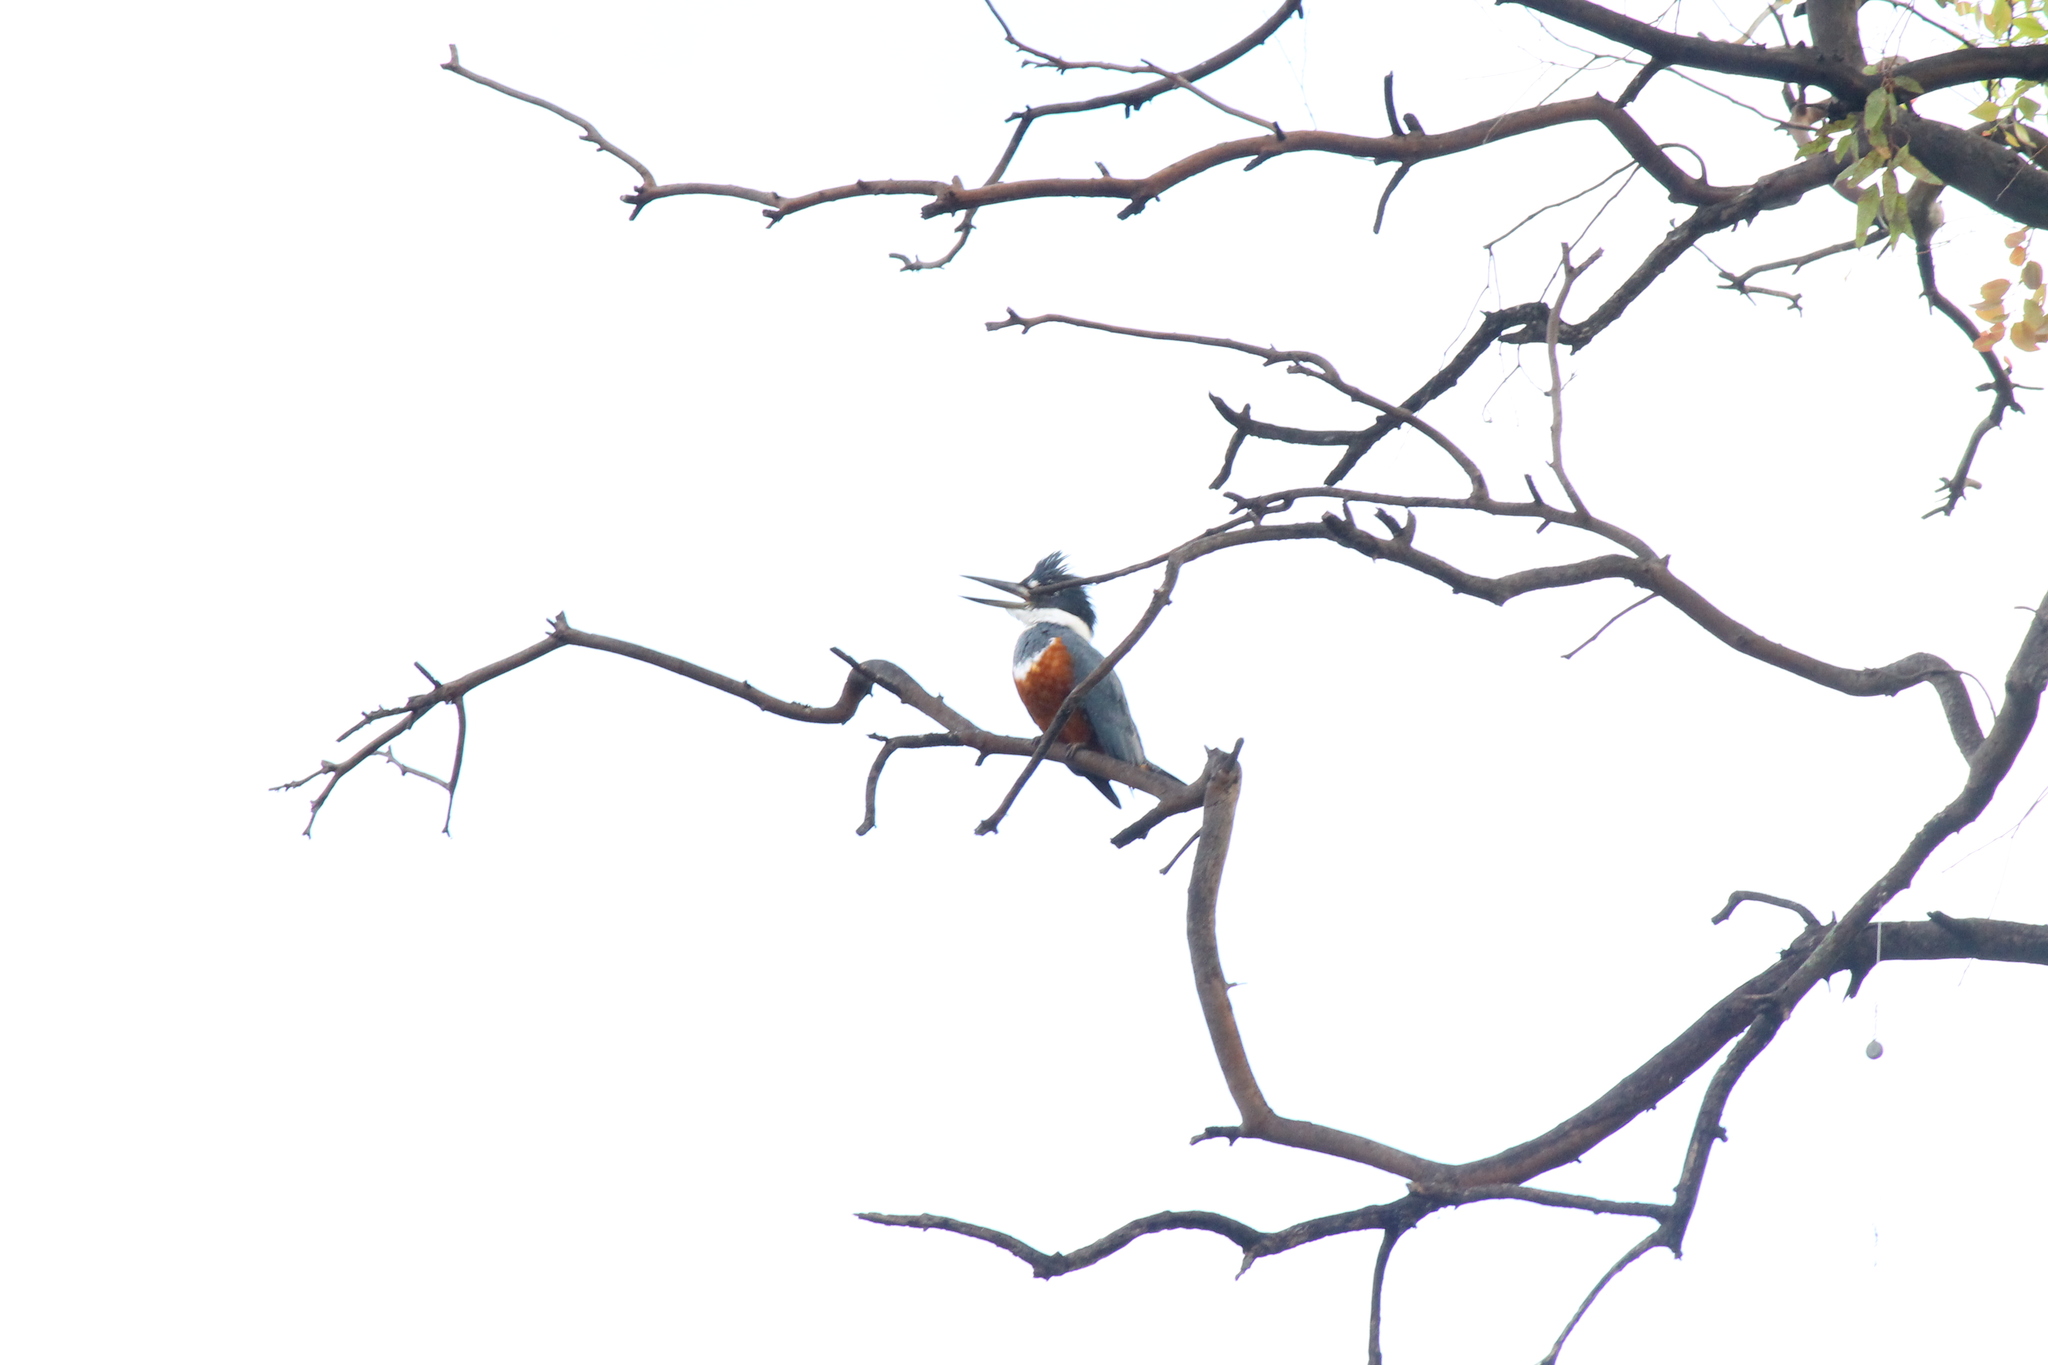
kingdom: Animalia
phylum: Chordata
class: Aves
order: Coraciiformes
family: Alcedinidae
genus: Megaceryle
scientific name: Megaceryle torquata
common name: Ringed kingfisher
